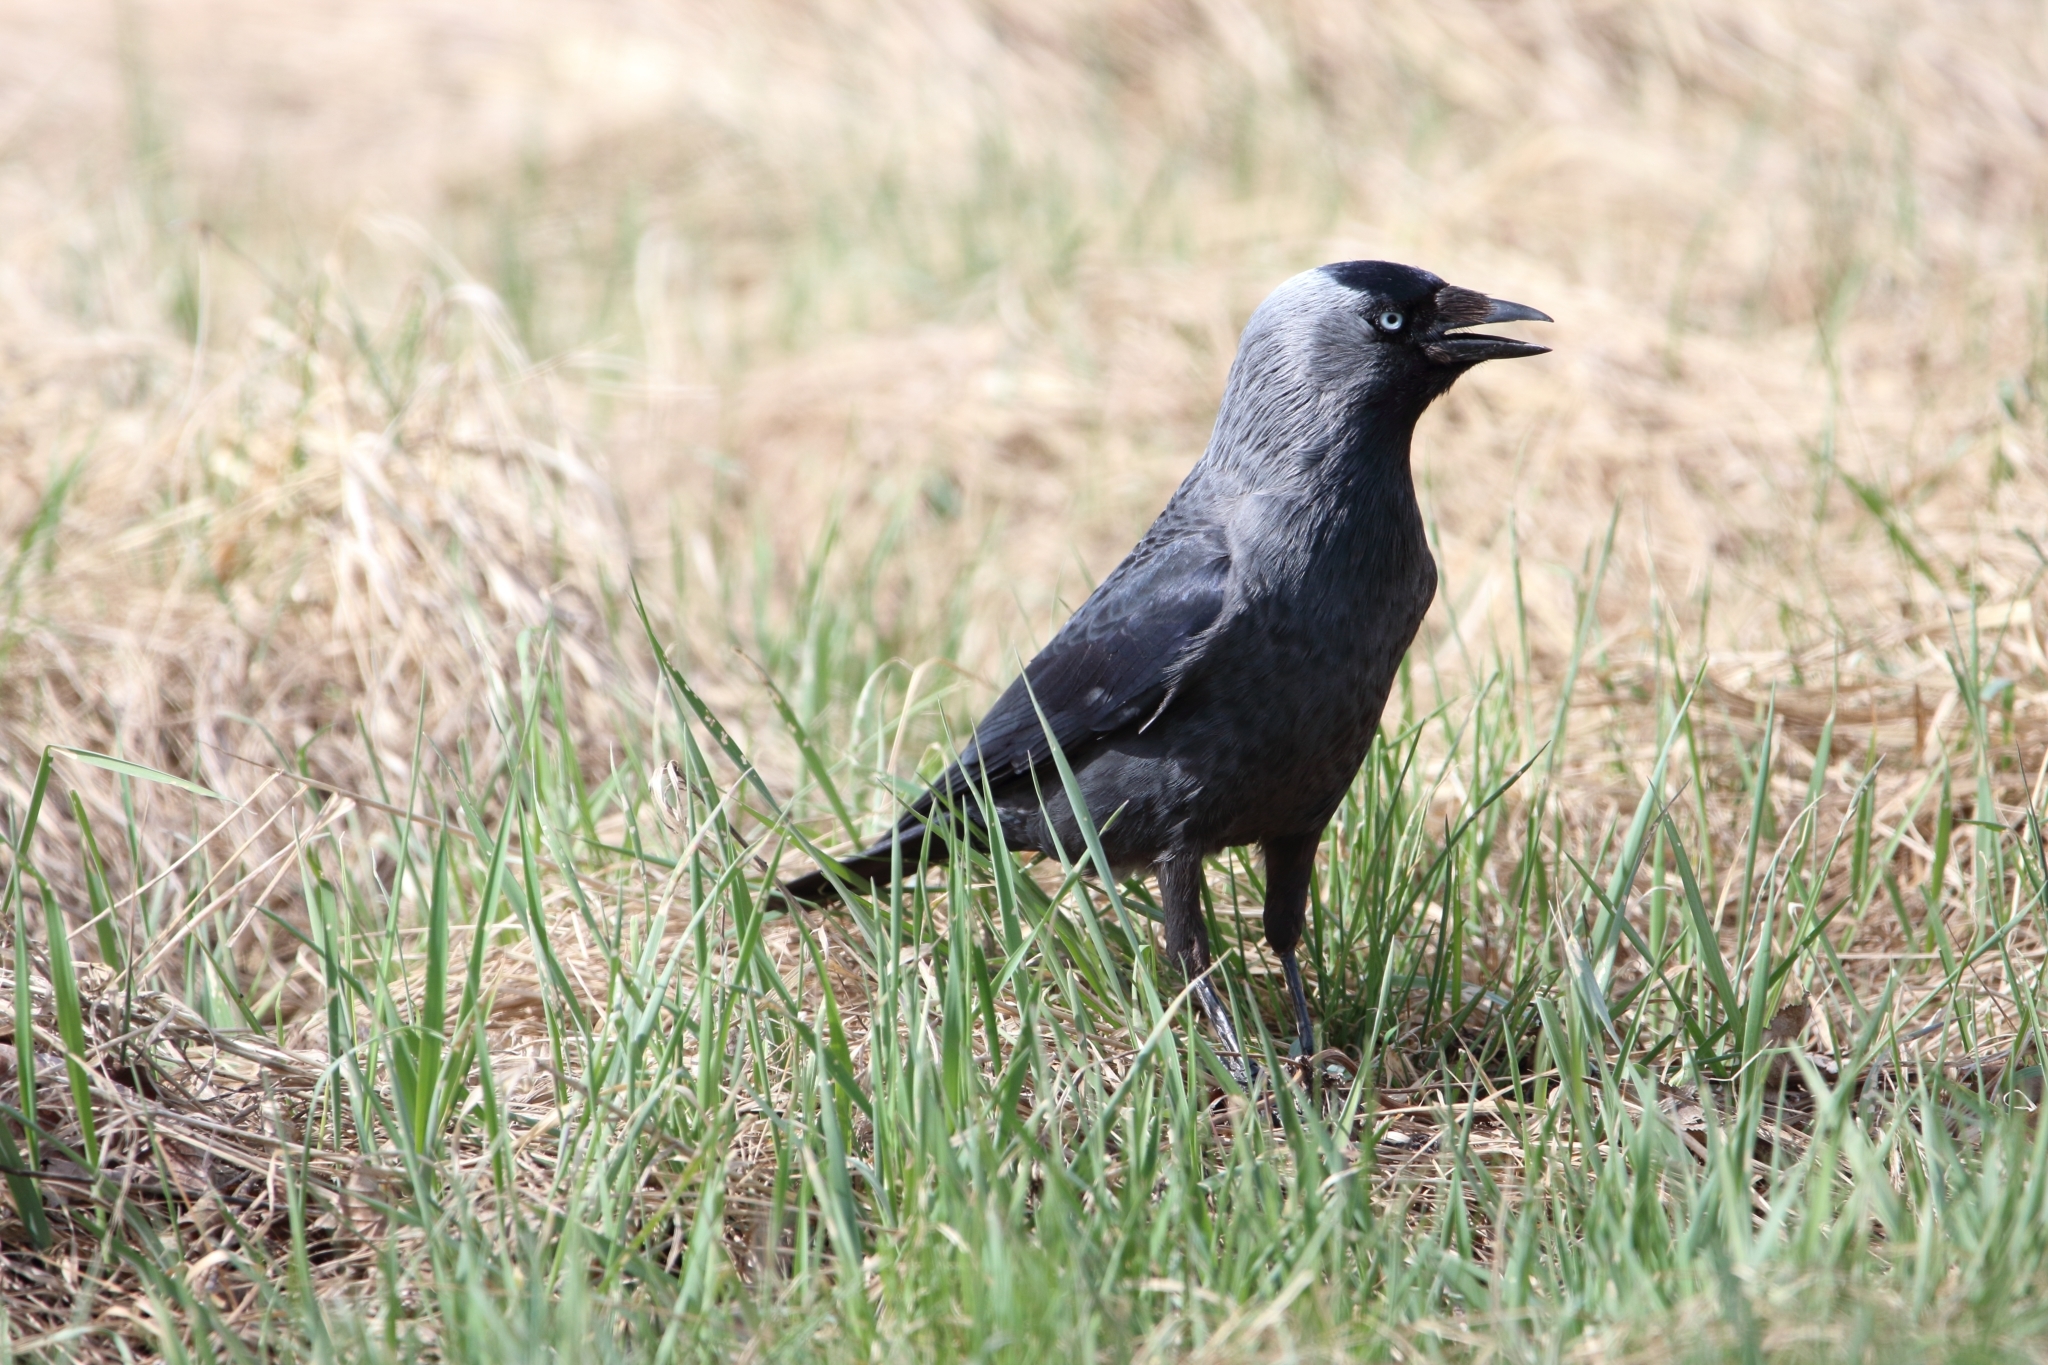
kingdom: Animalia
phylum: Chordata
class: Aves
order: Passeriformes
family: Corvidae
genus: Coloeus
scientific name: Coloeus monedula
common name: Western jackdaw
